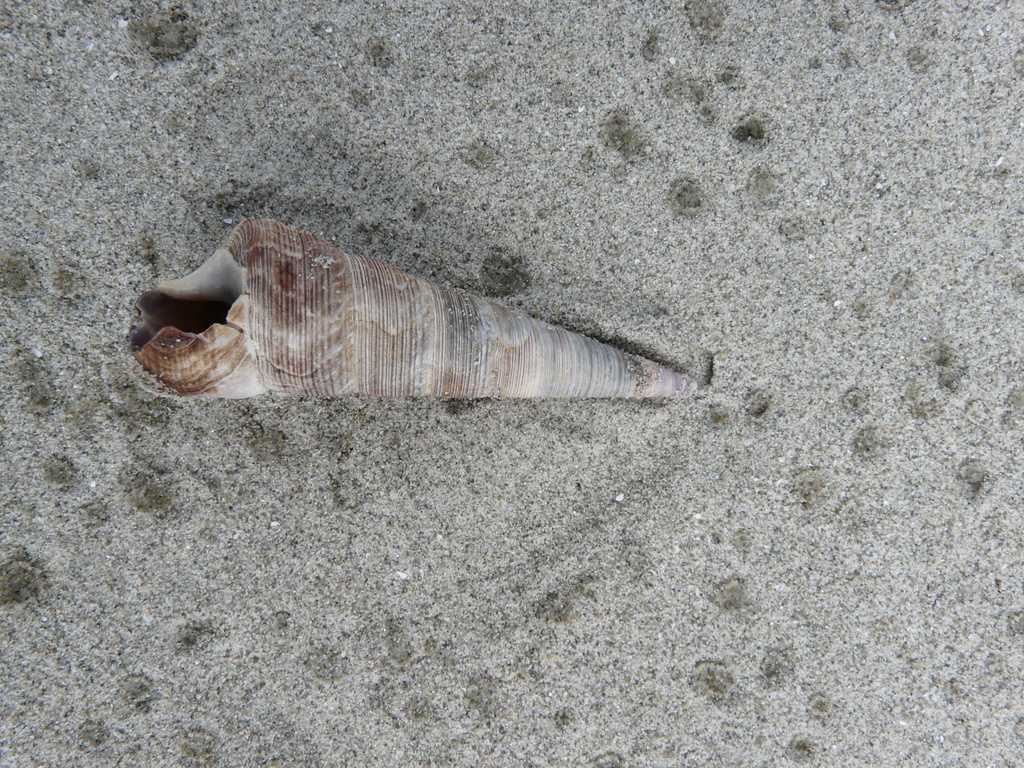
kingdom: Animalia
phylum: Mollusca
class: Gastropoda
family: Turritellidae
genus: Maoricolpus
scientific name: Maoricolpus roseus
